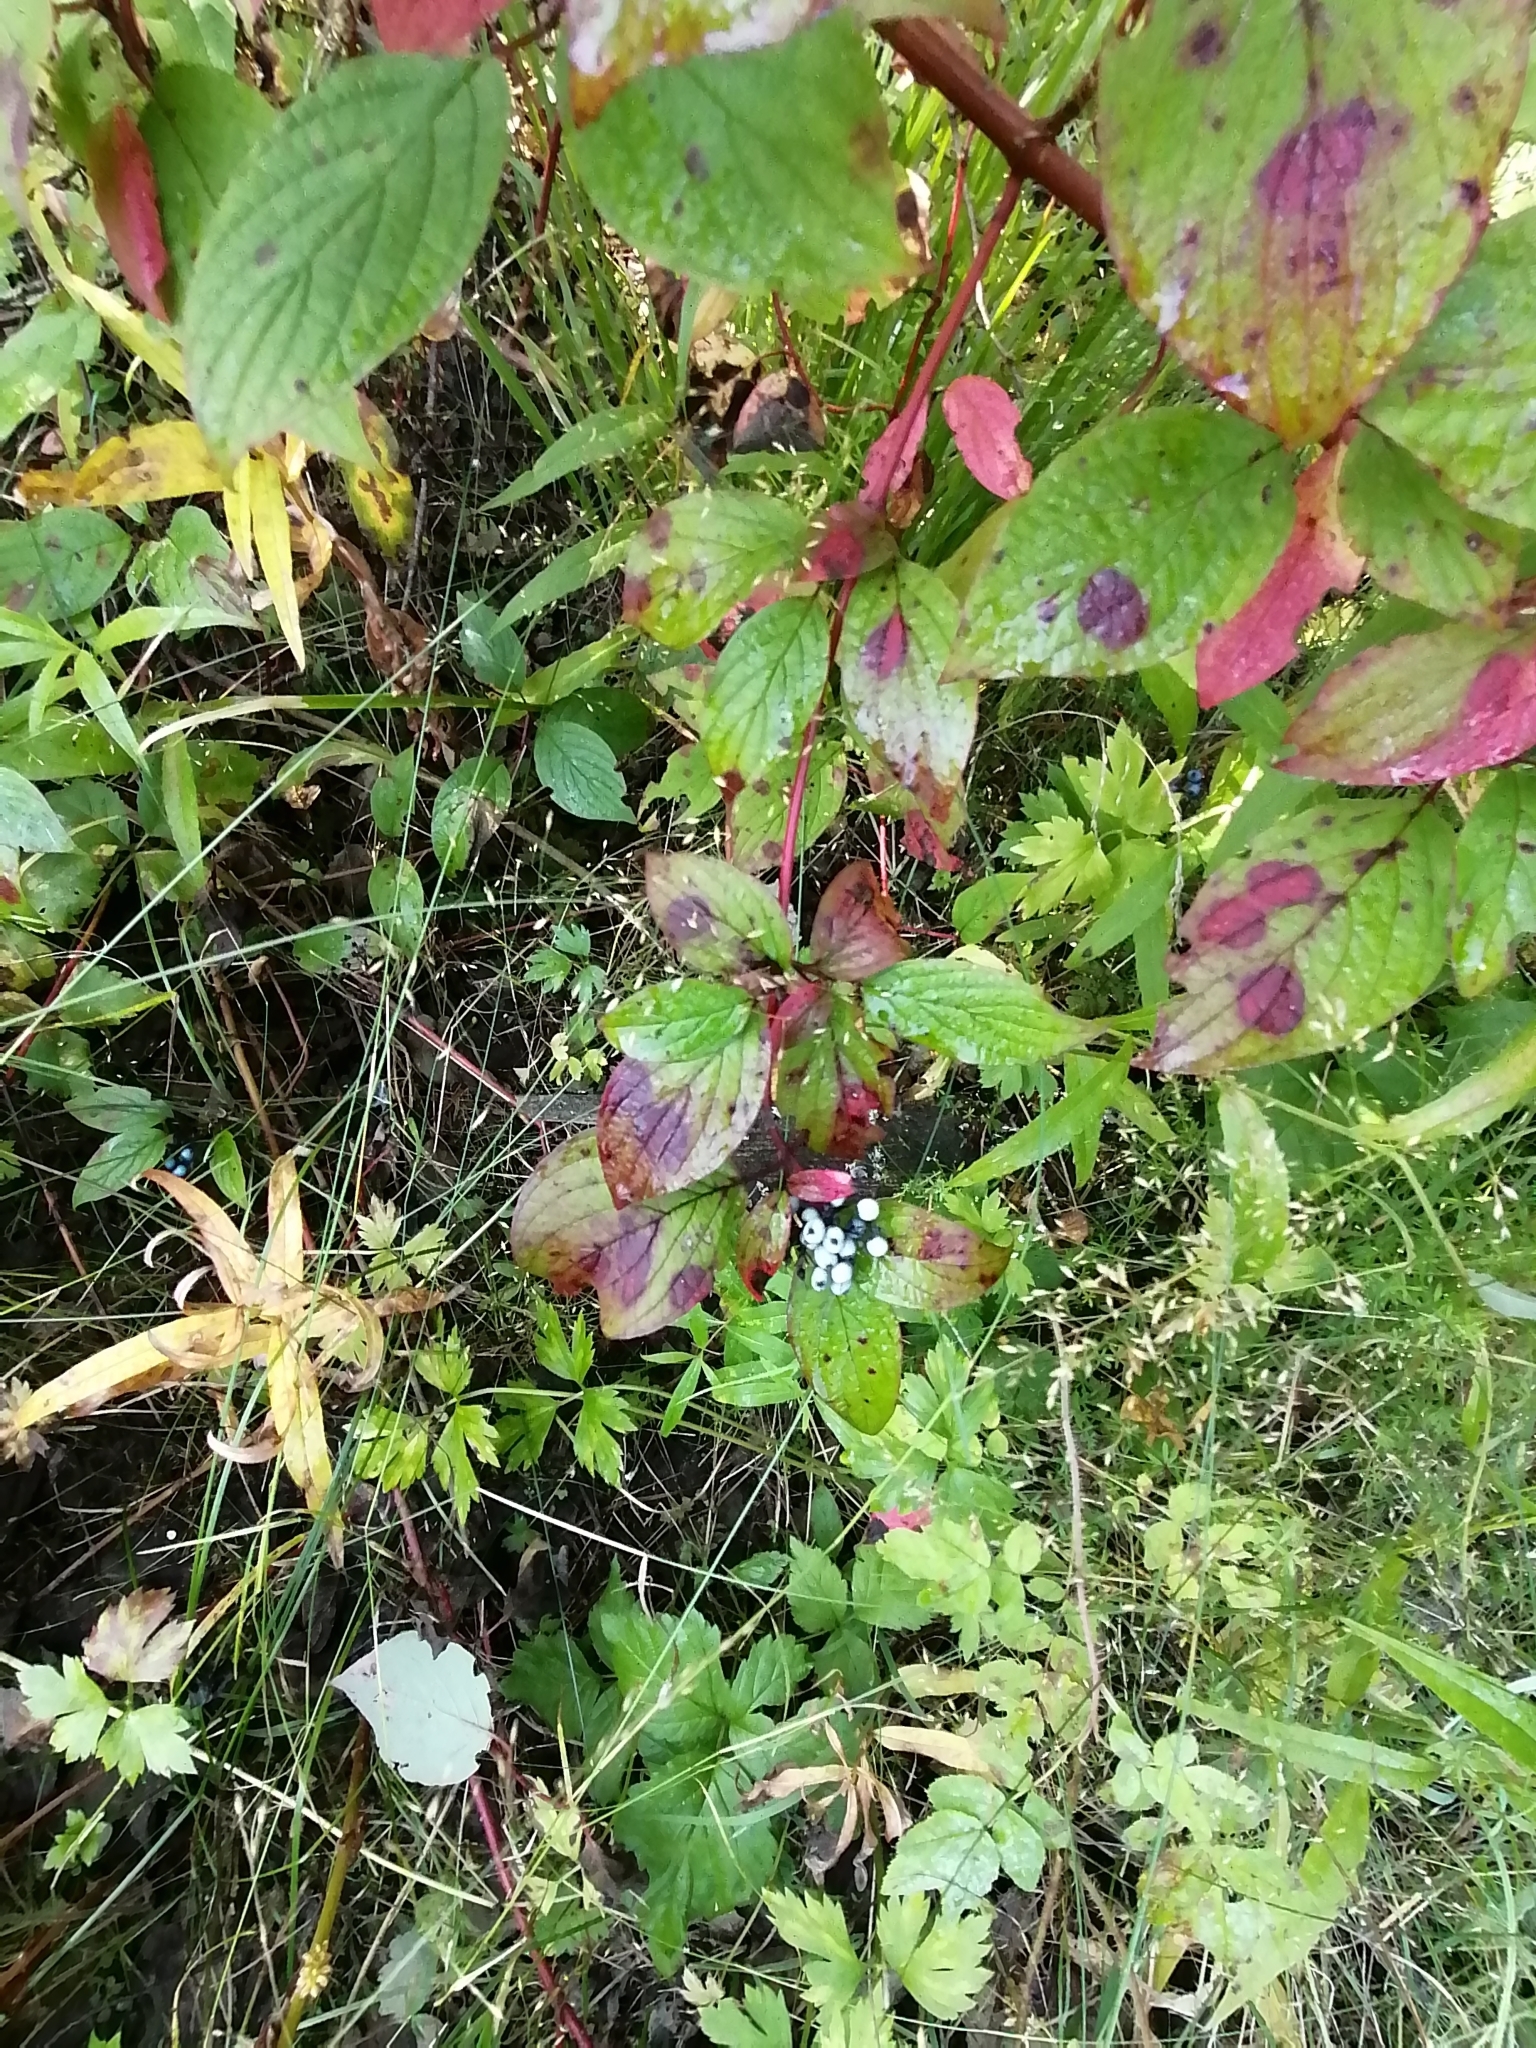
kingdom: Plantae
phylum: Tracheophyta
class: Magnoliopsida
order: Cornales
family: Cornaceae
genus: Cornus
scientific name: Cornus alba
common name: White dogwood
